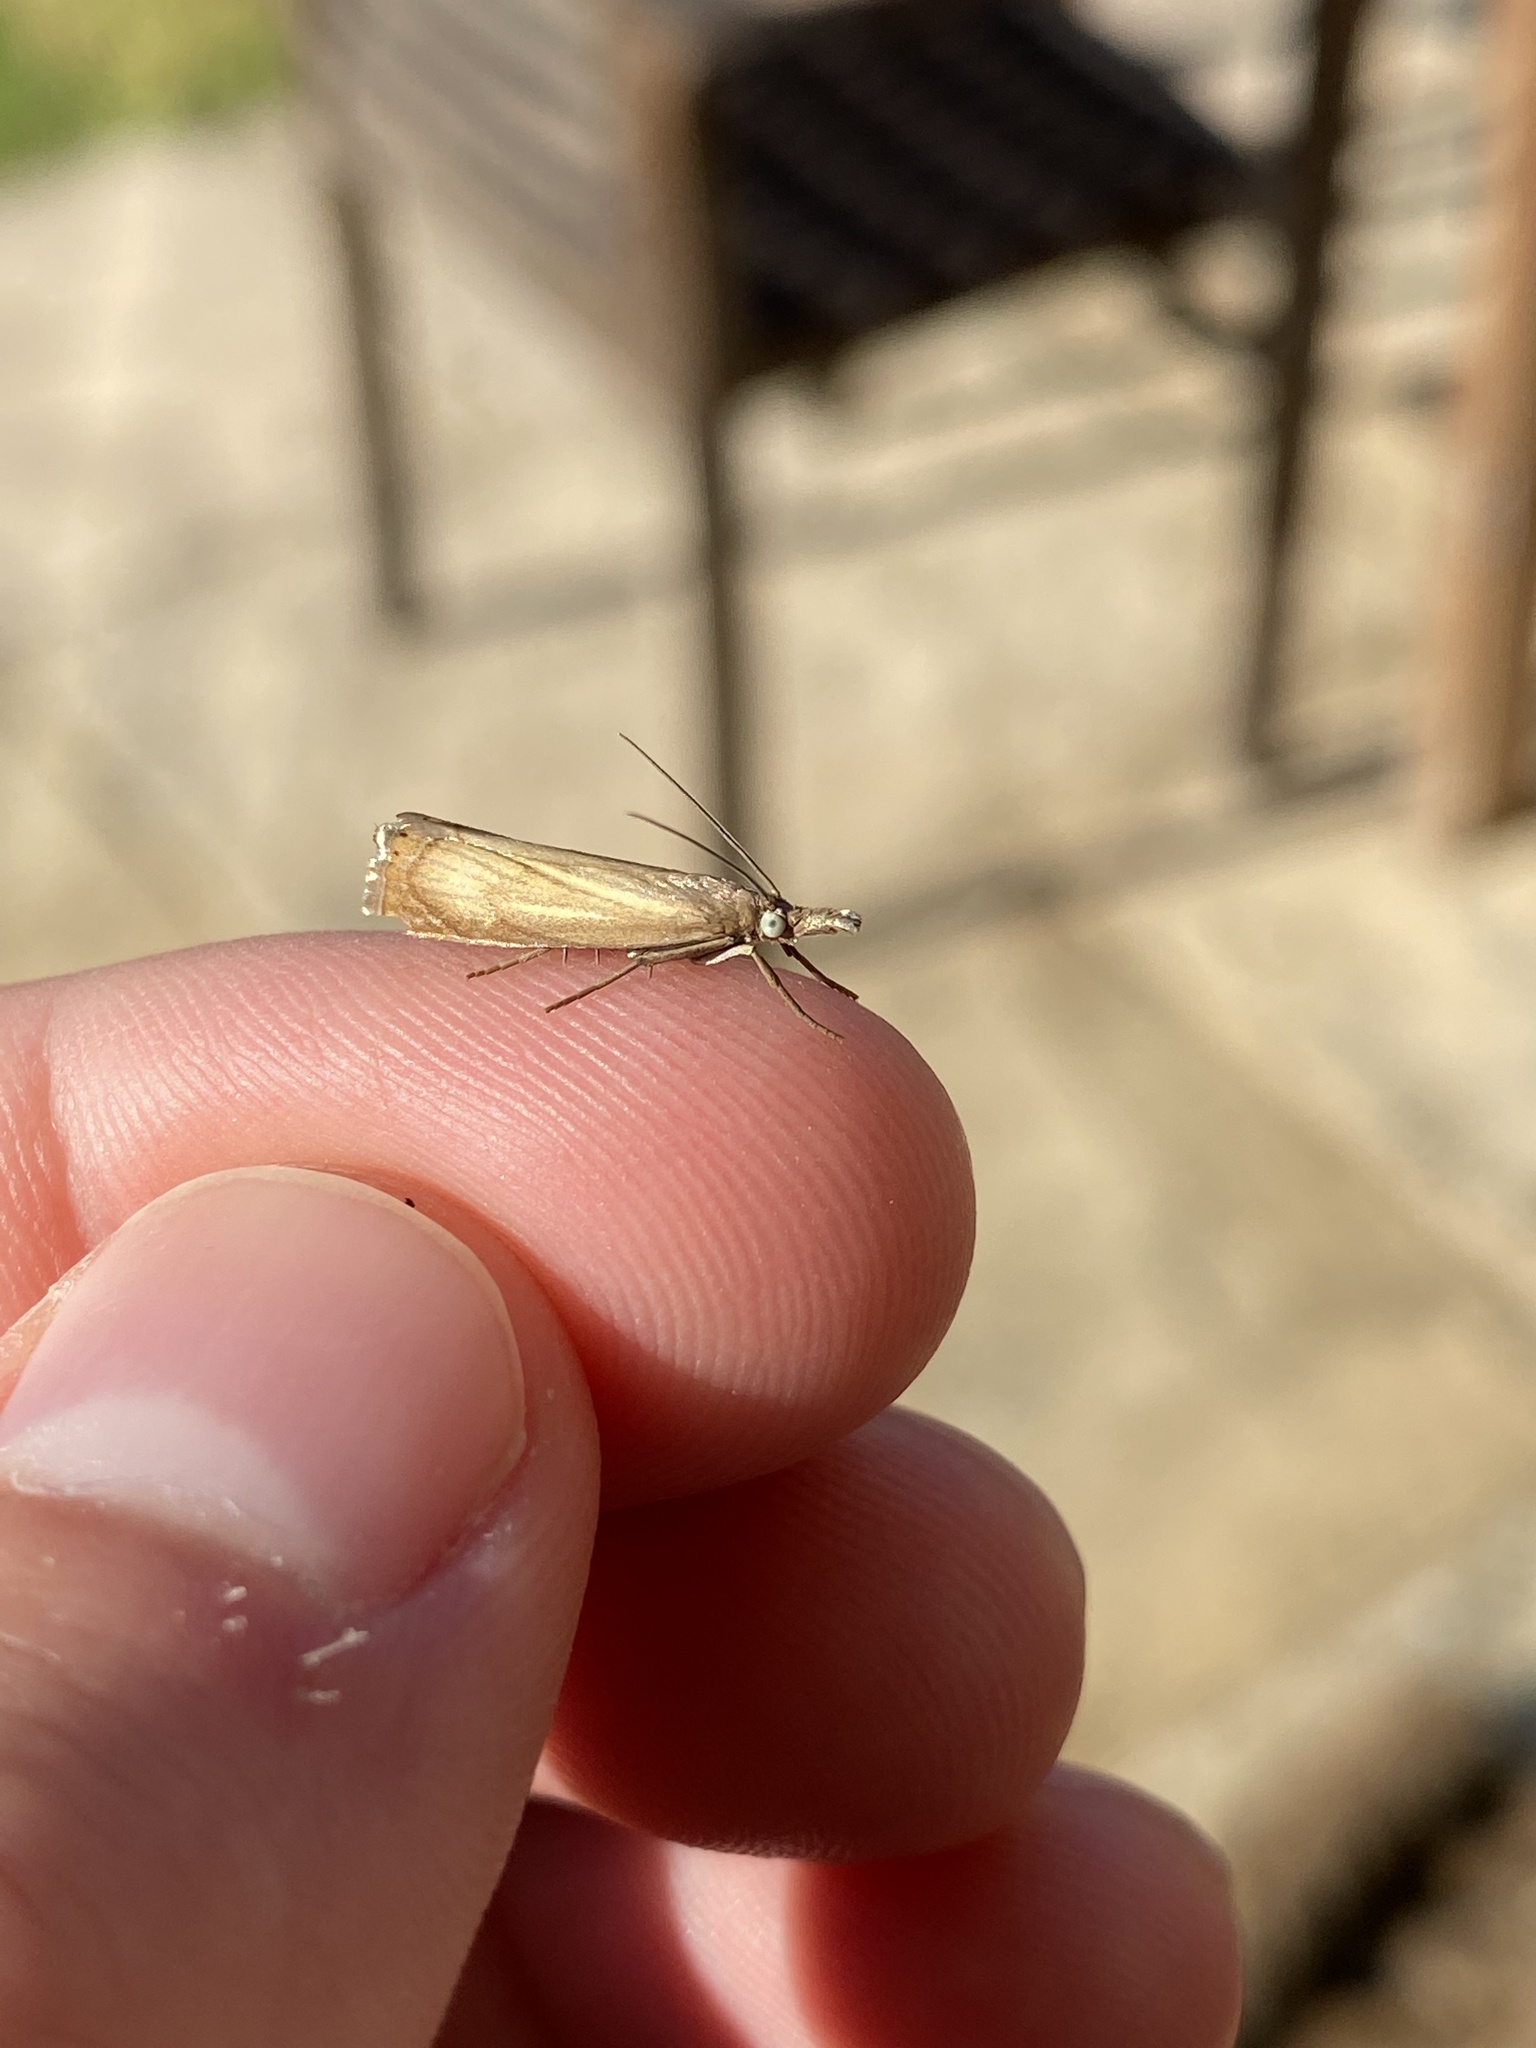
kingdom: Animalia
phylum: Arthropoda
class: Insecta
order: Lepidoptera
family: Crambidae
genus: Chrysoteuchia
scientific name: Chrysoteuchia culmella
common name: Garden grass-veneer
